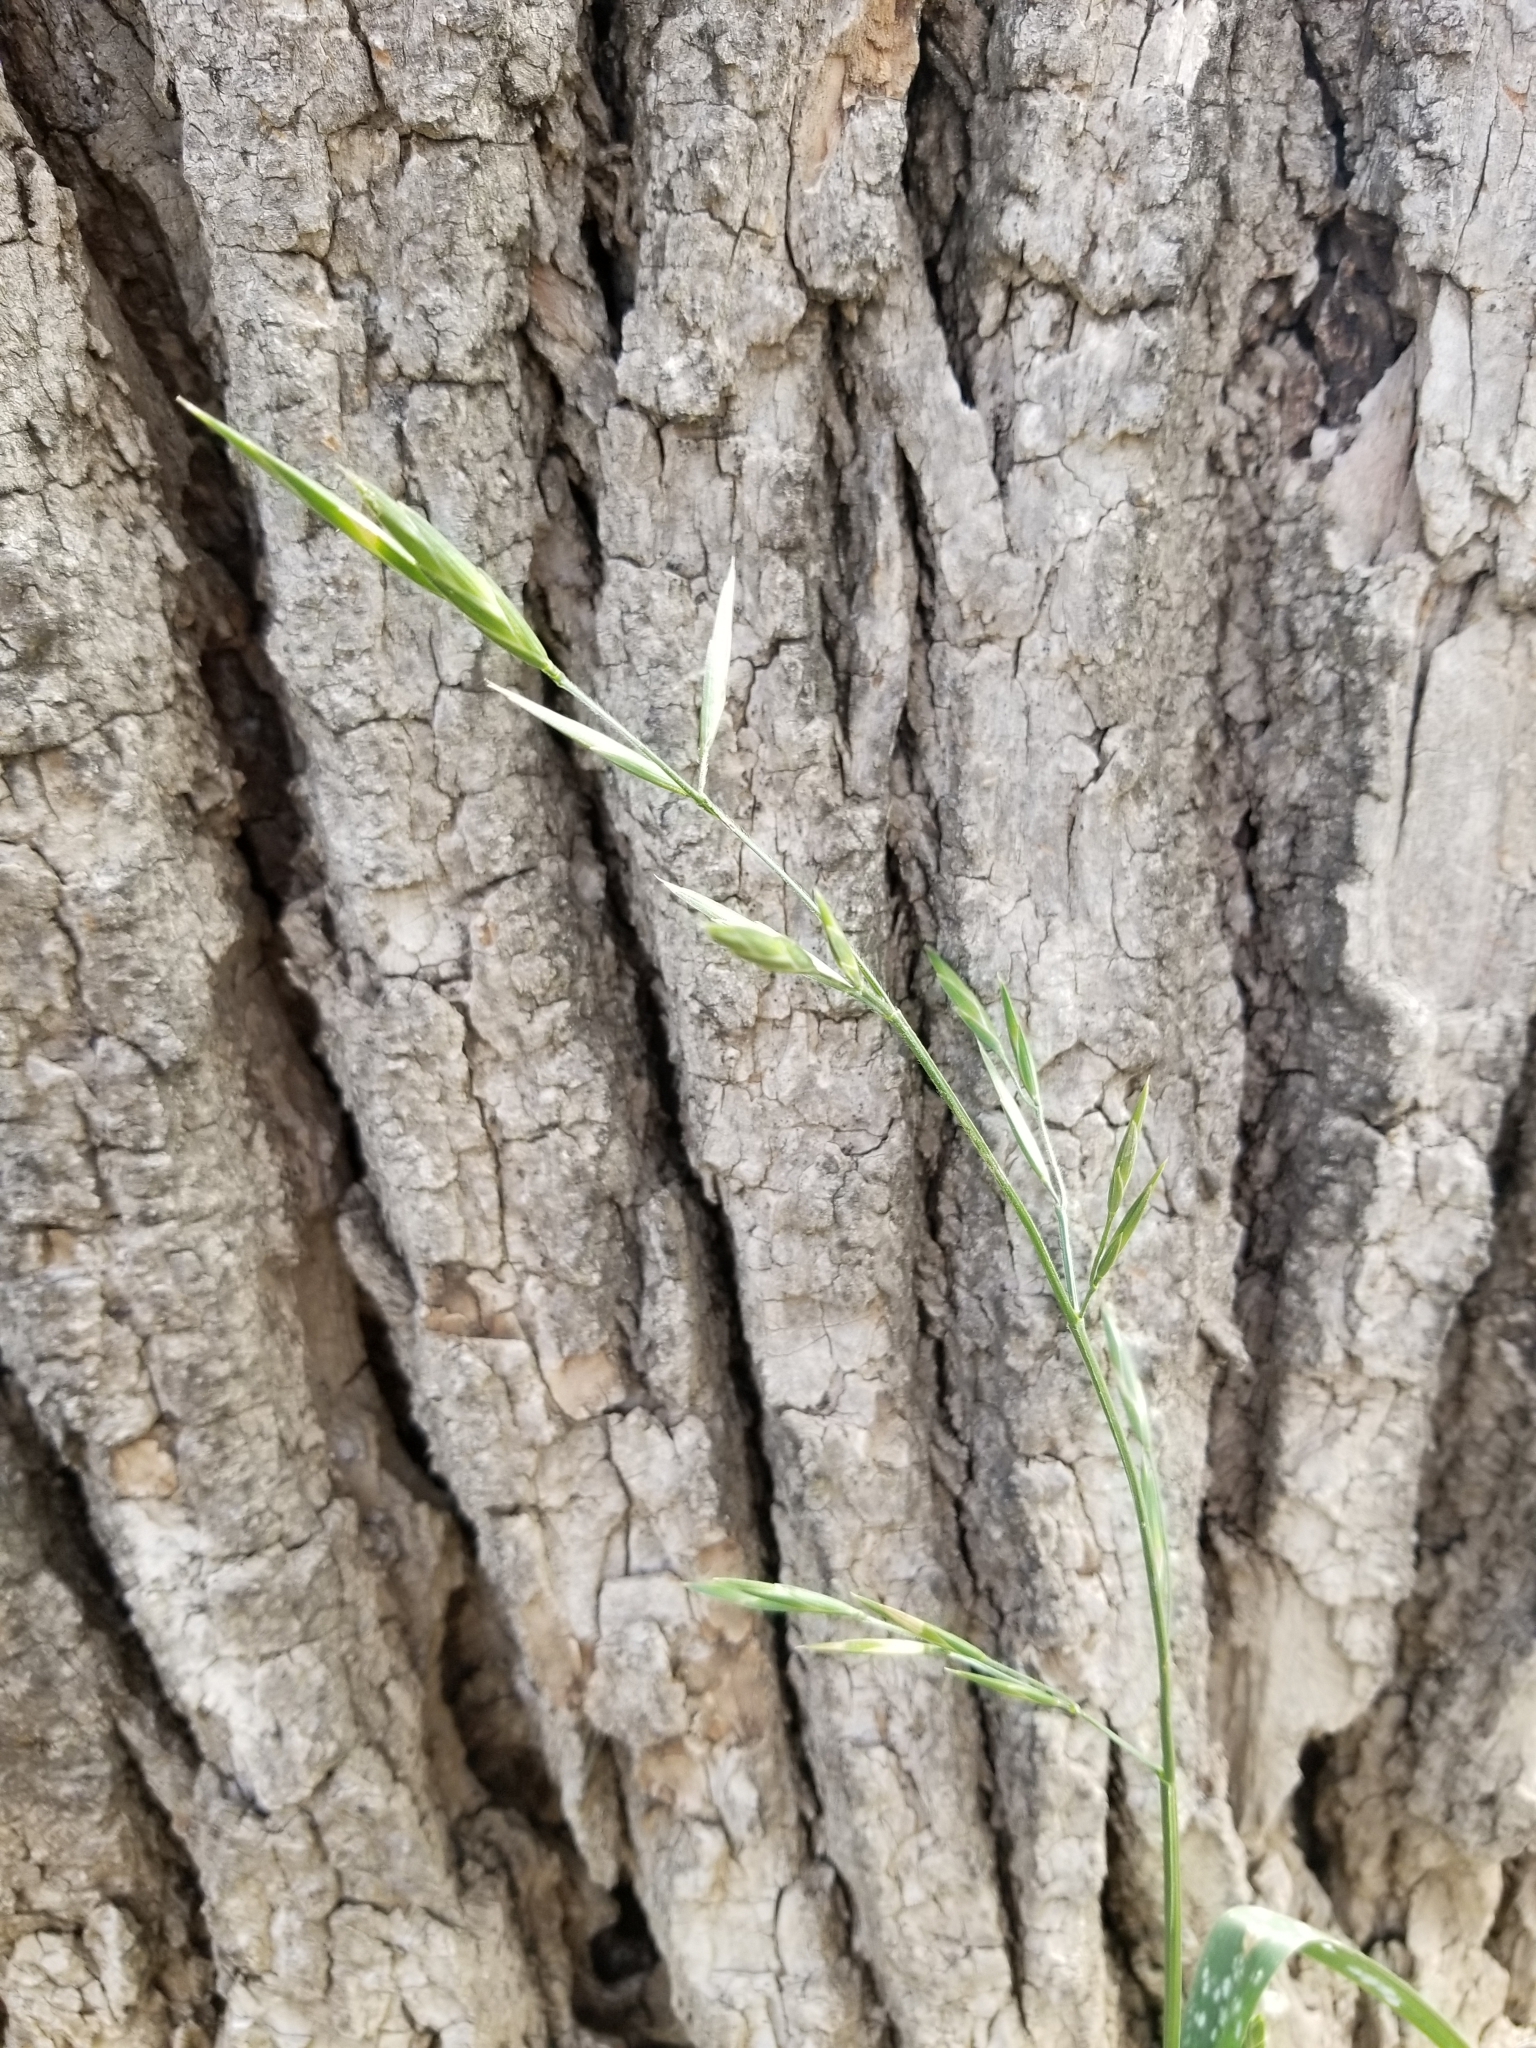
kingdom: Plantae
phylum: Tracheophyta
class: Liliopsida
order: Poales
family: Poaceae
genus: Bromus
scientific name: Bromus catharticus
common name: Rescuegrass
